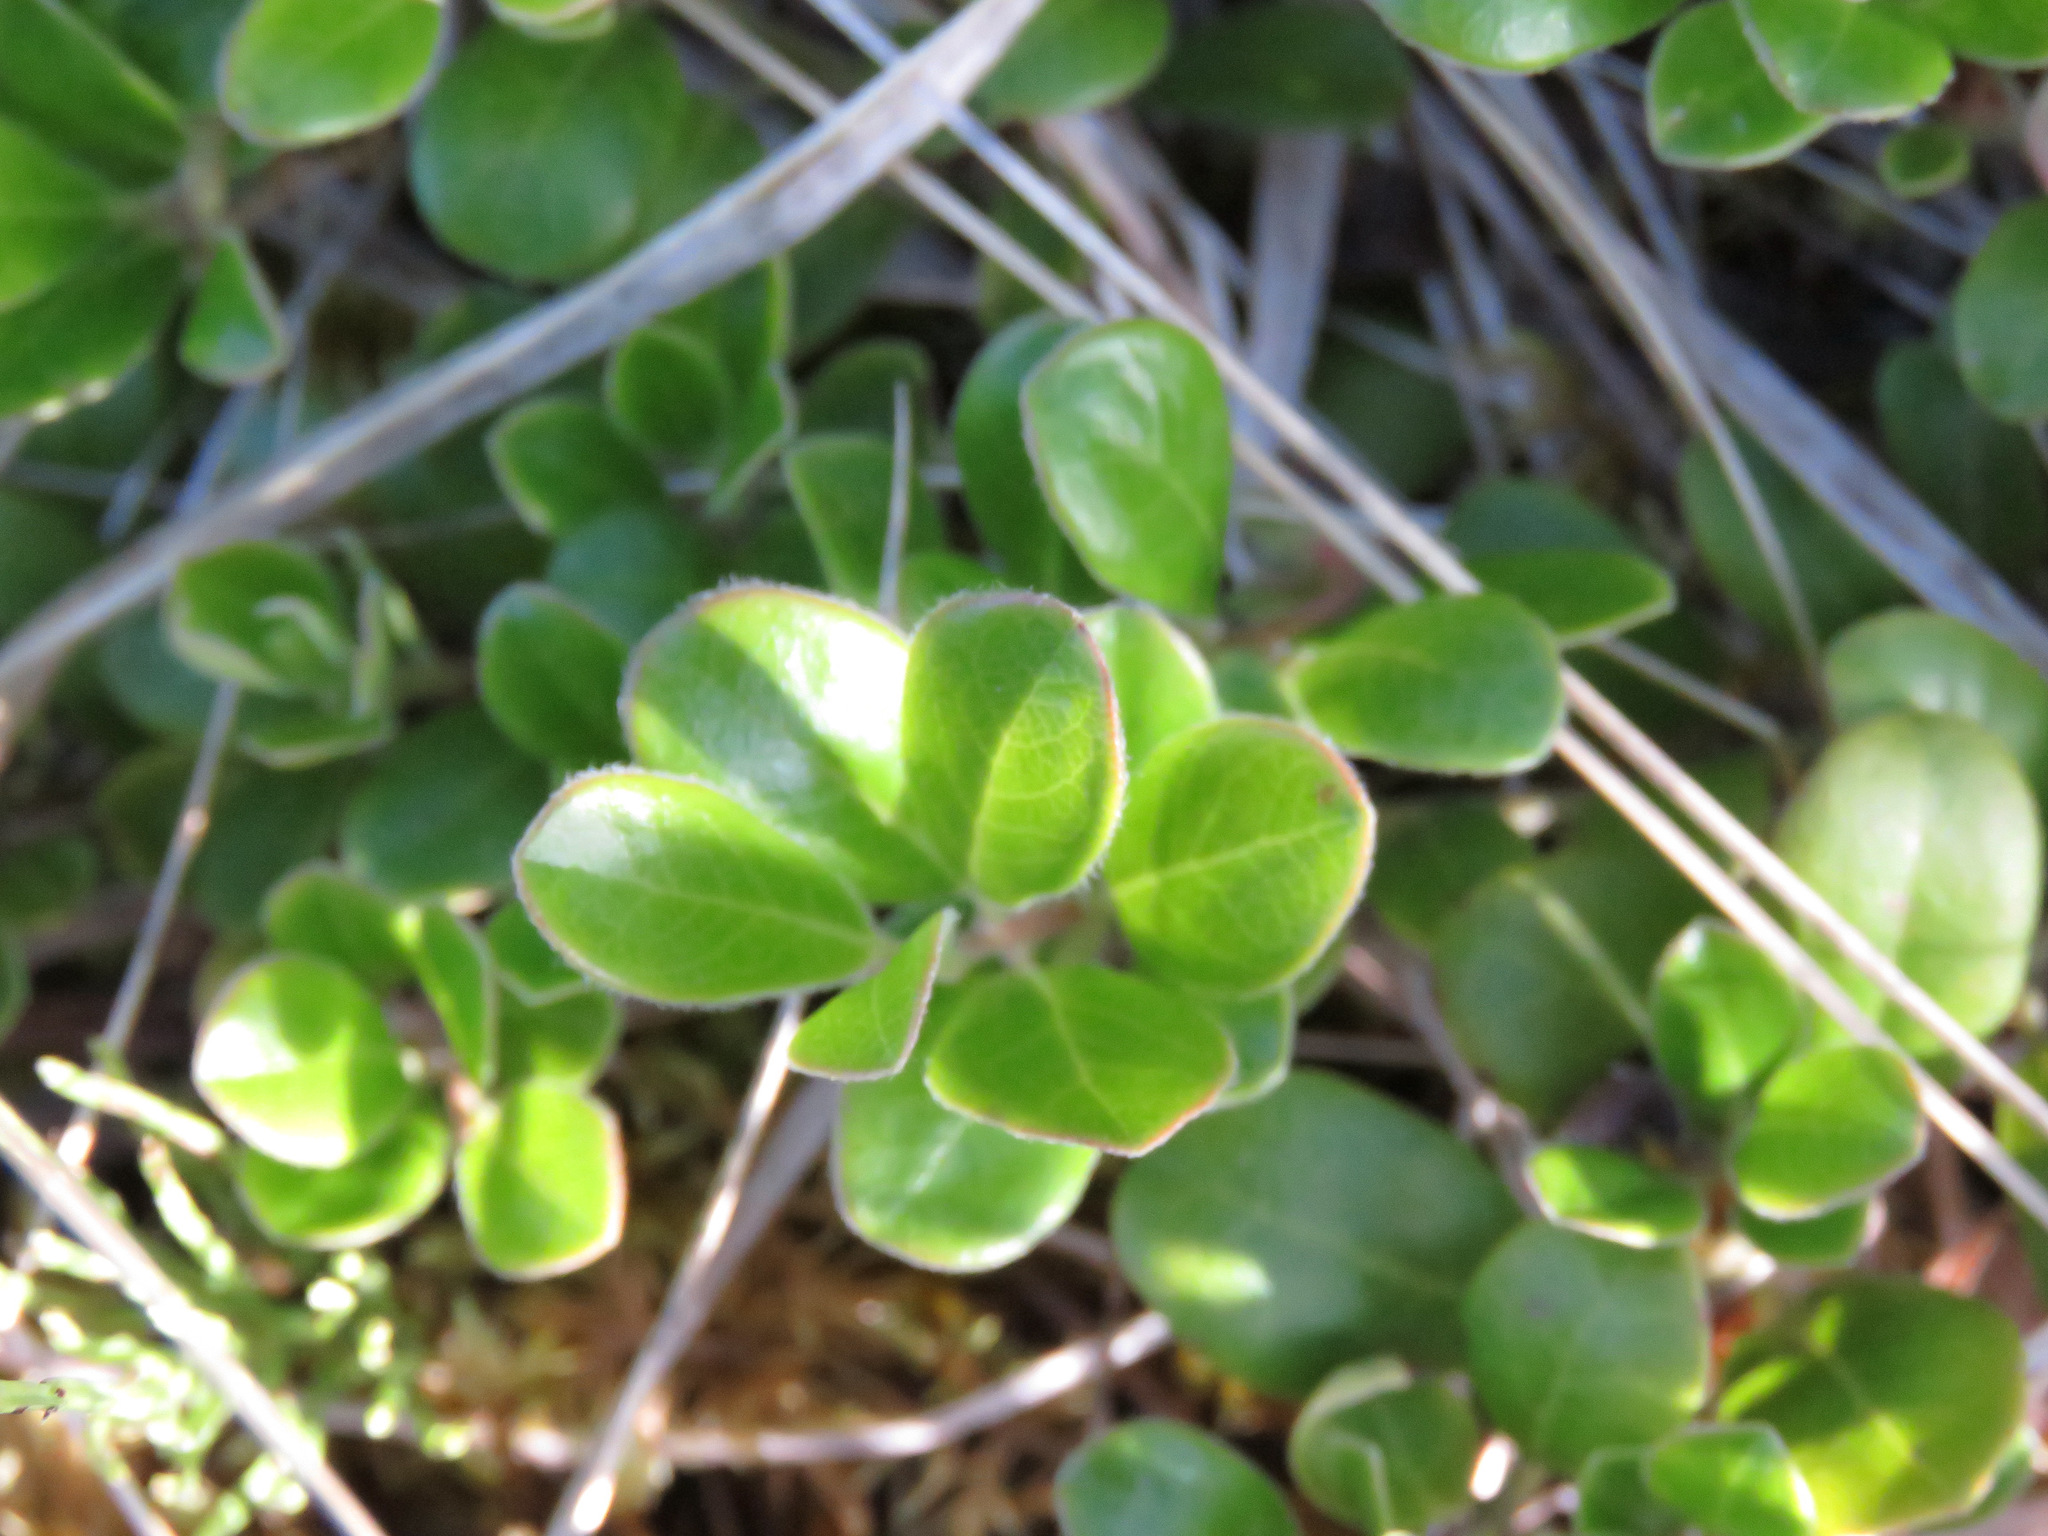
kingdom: Plantae
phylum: Tracheophyta
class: Magnoliopsida
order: Ericales
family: Ericaceae
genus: Arctostaphylos
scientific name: Arctostaphylos uva-ursi
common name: Bearberry
